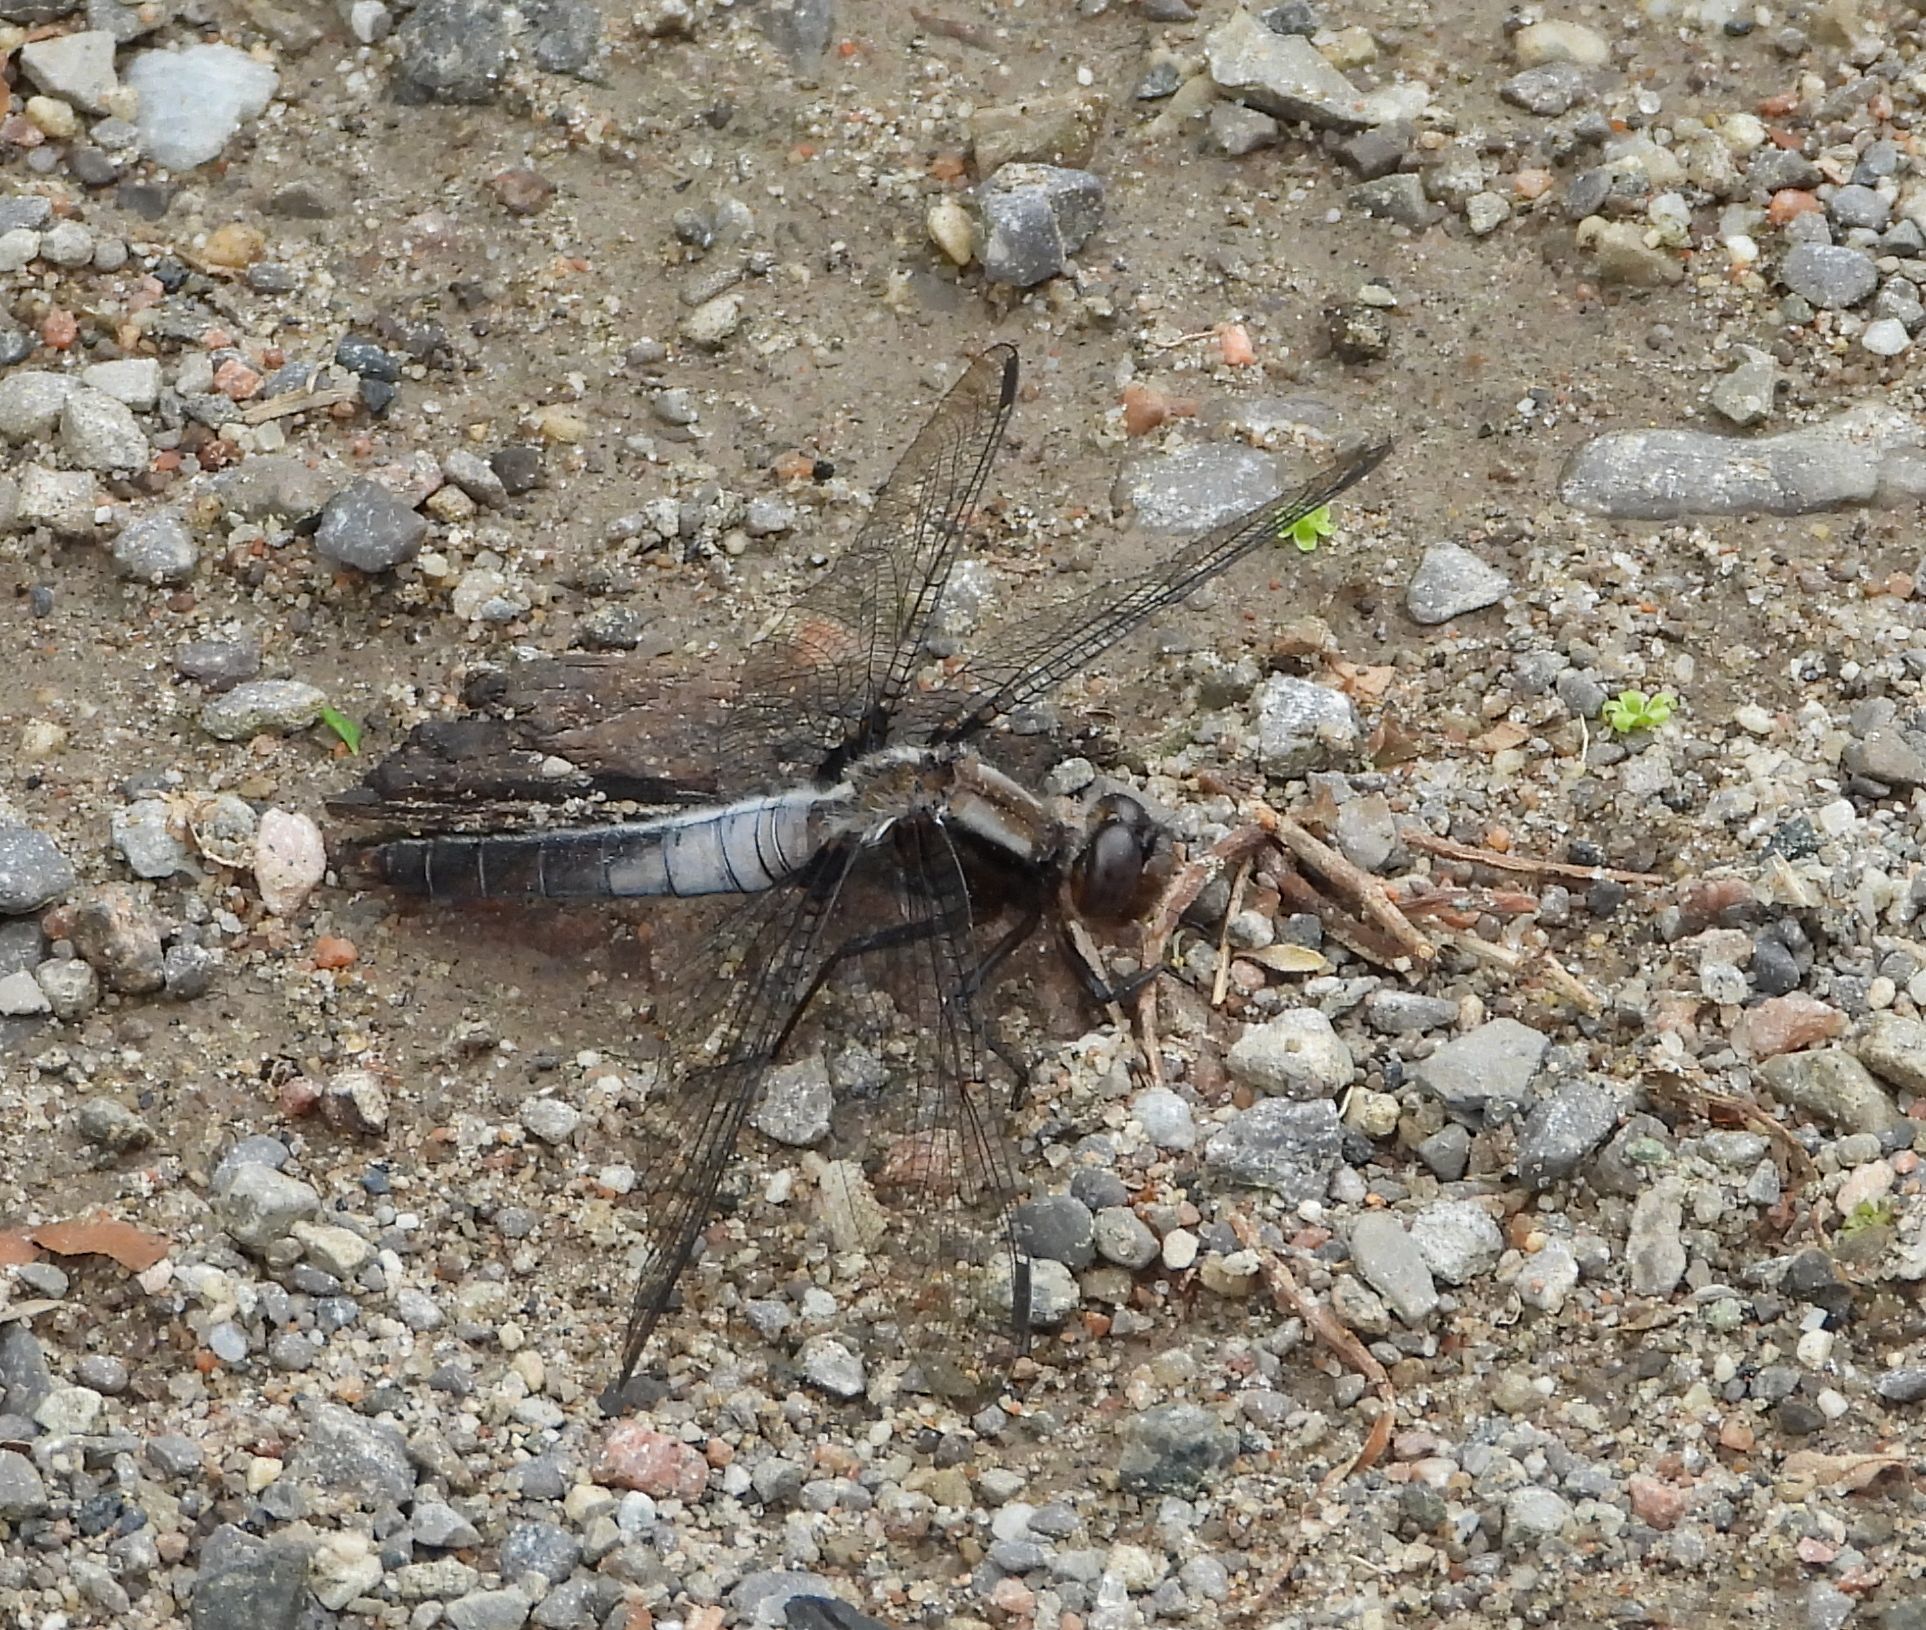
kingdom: Animalia
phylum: Arthropoda
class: Insecta
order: Odonata
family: Libellulidae
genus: Ladona
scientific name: Ladona julia
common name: Chalk-fronted corporal
